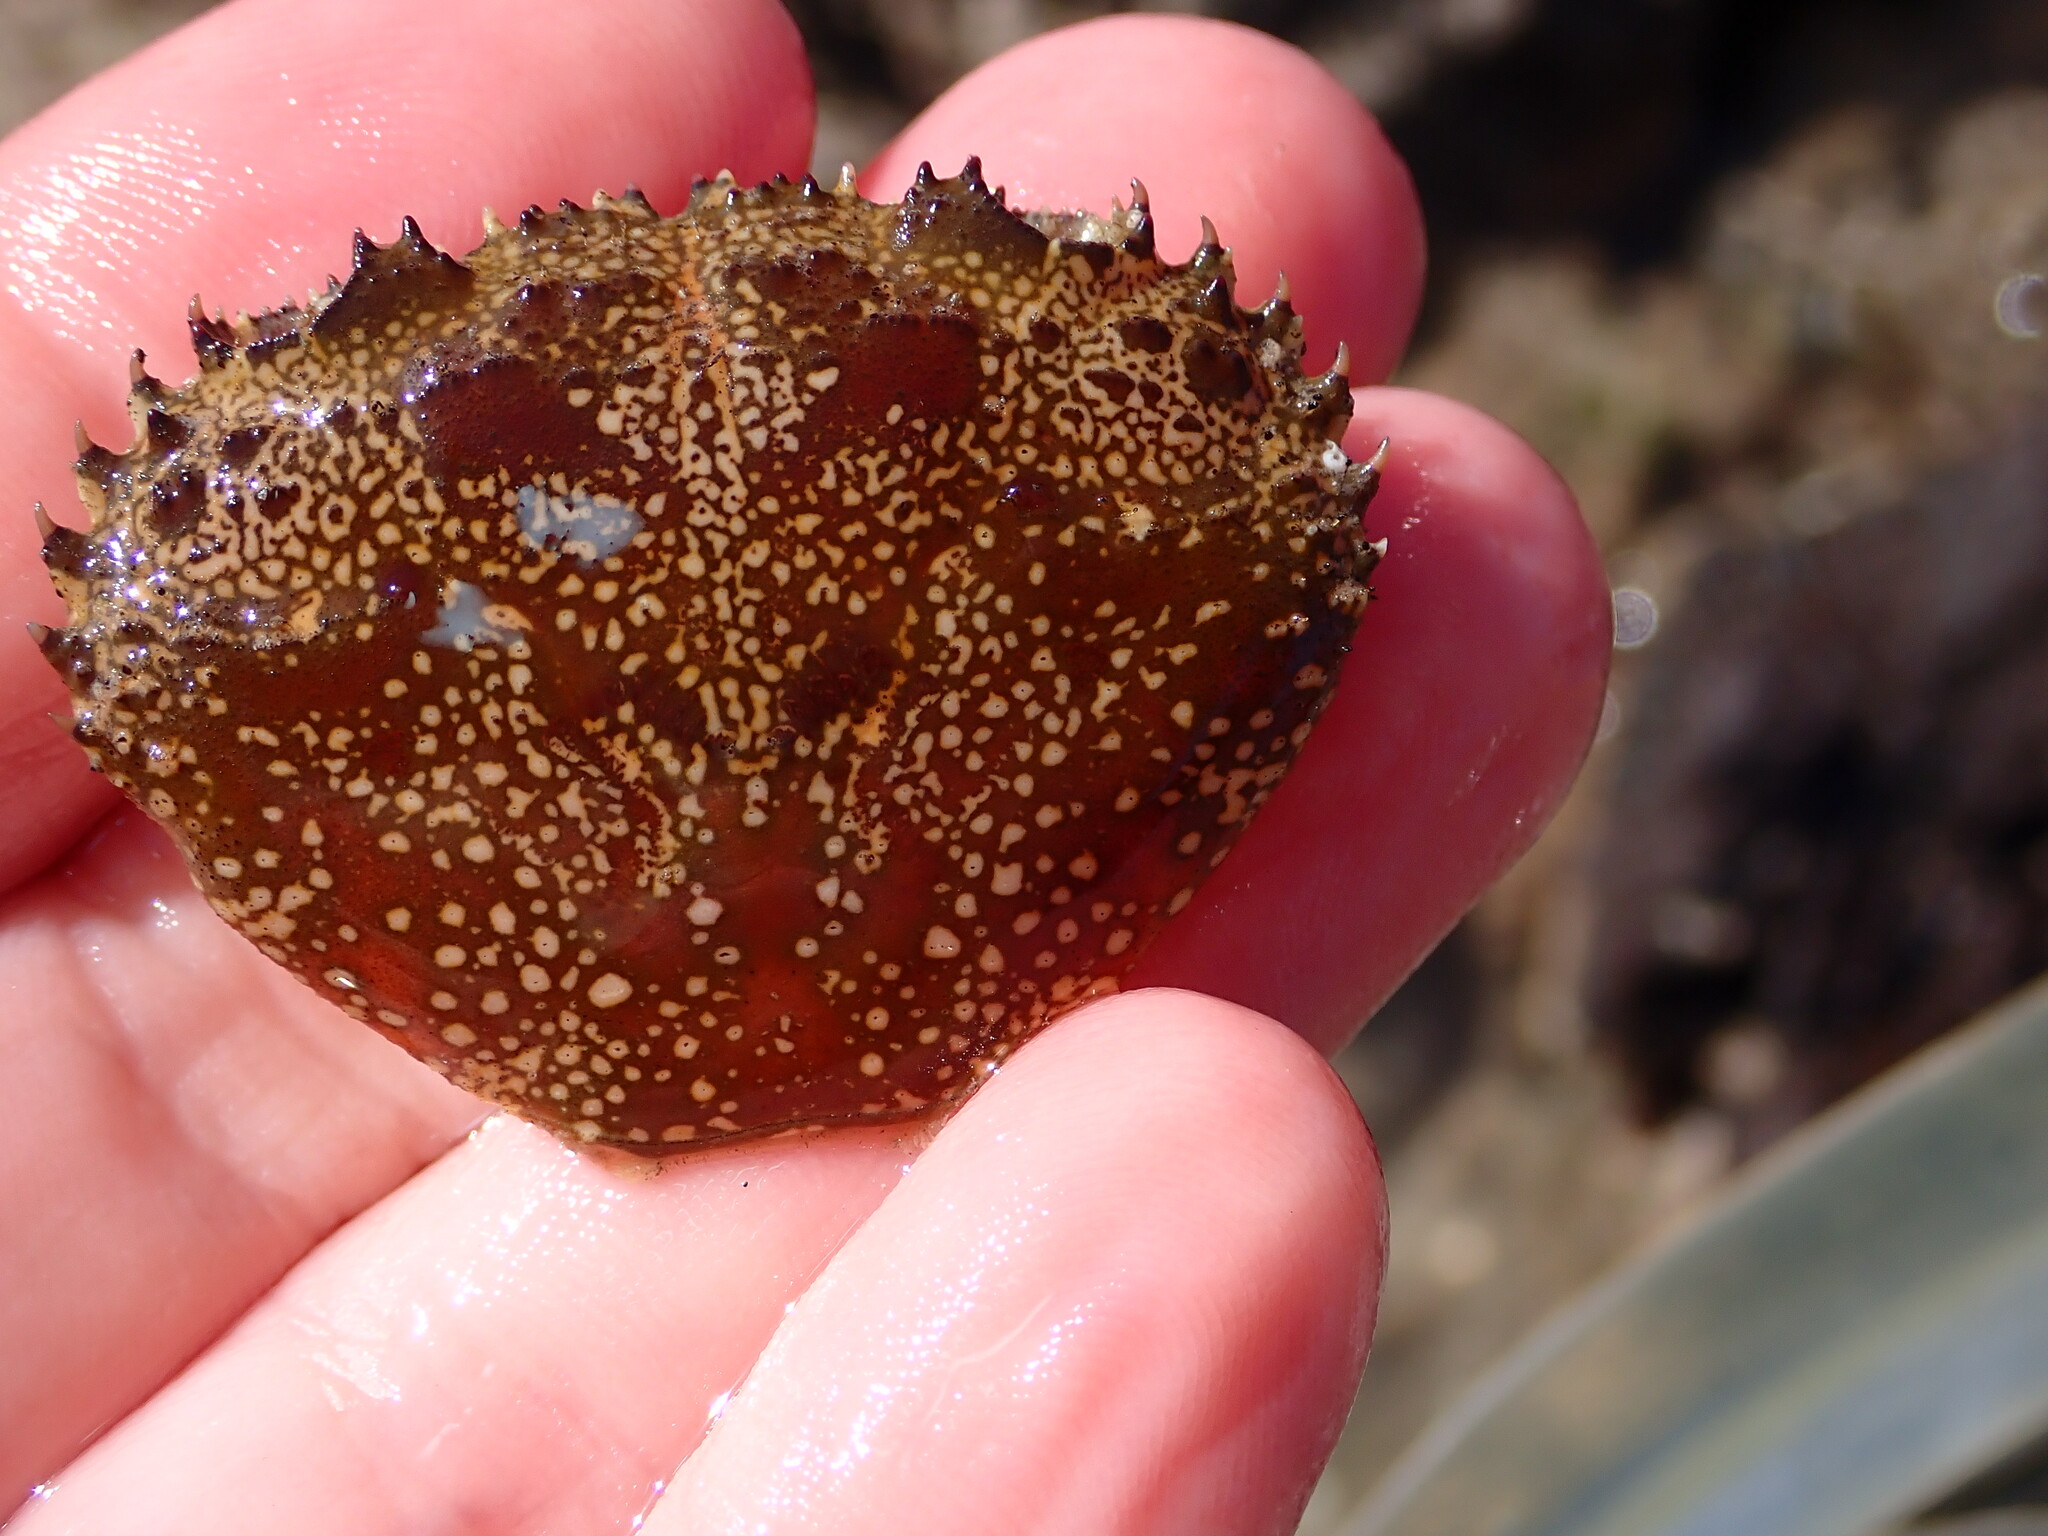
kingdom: Animalia
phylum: Arthropoda
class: Malacostraca
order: Decapoda
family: Eriphiidae
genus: Eriphia
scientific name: Eriphia verrucosa
